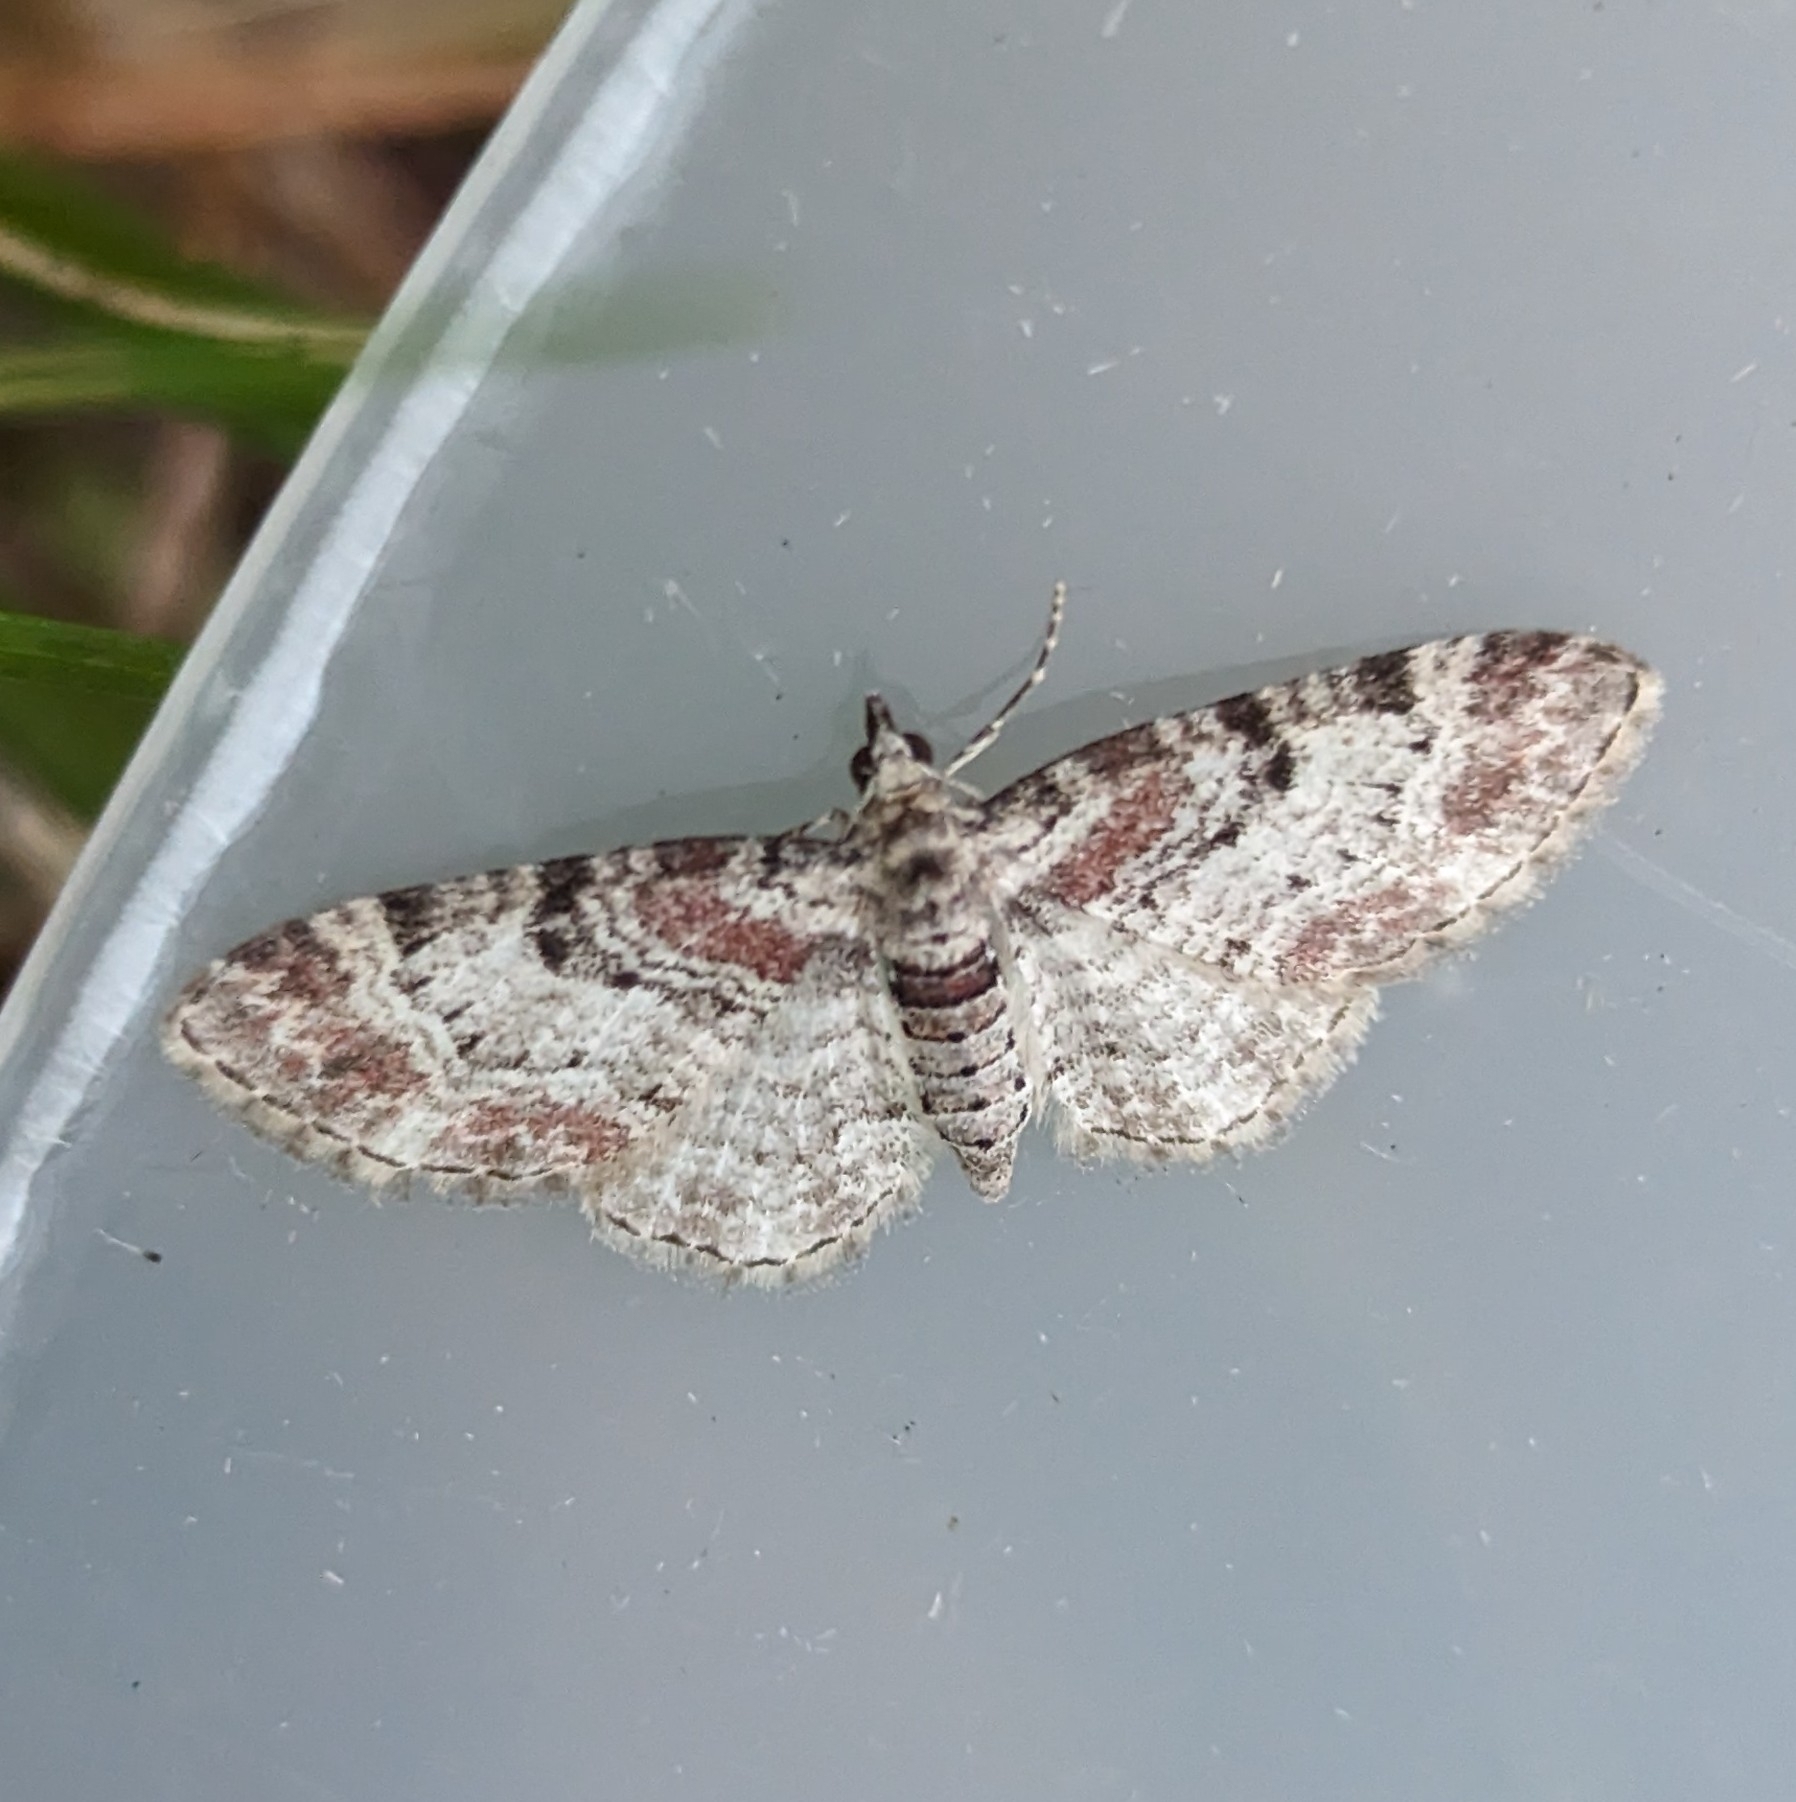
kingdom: Animalia
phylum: Arthropoda
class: Insecta
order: Lepidoptera
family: Geometridae
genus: Eupithecia
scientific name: Eupithecia johnstoni
